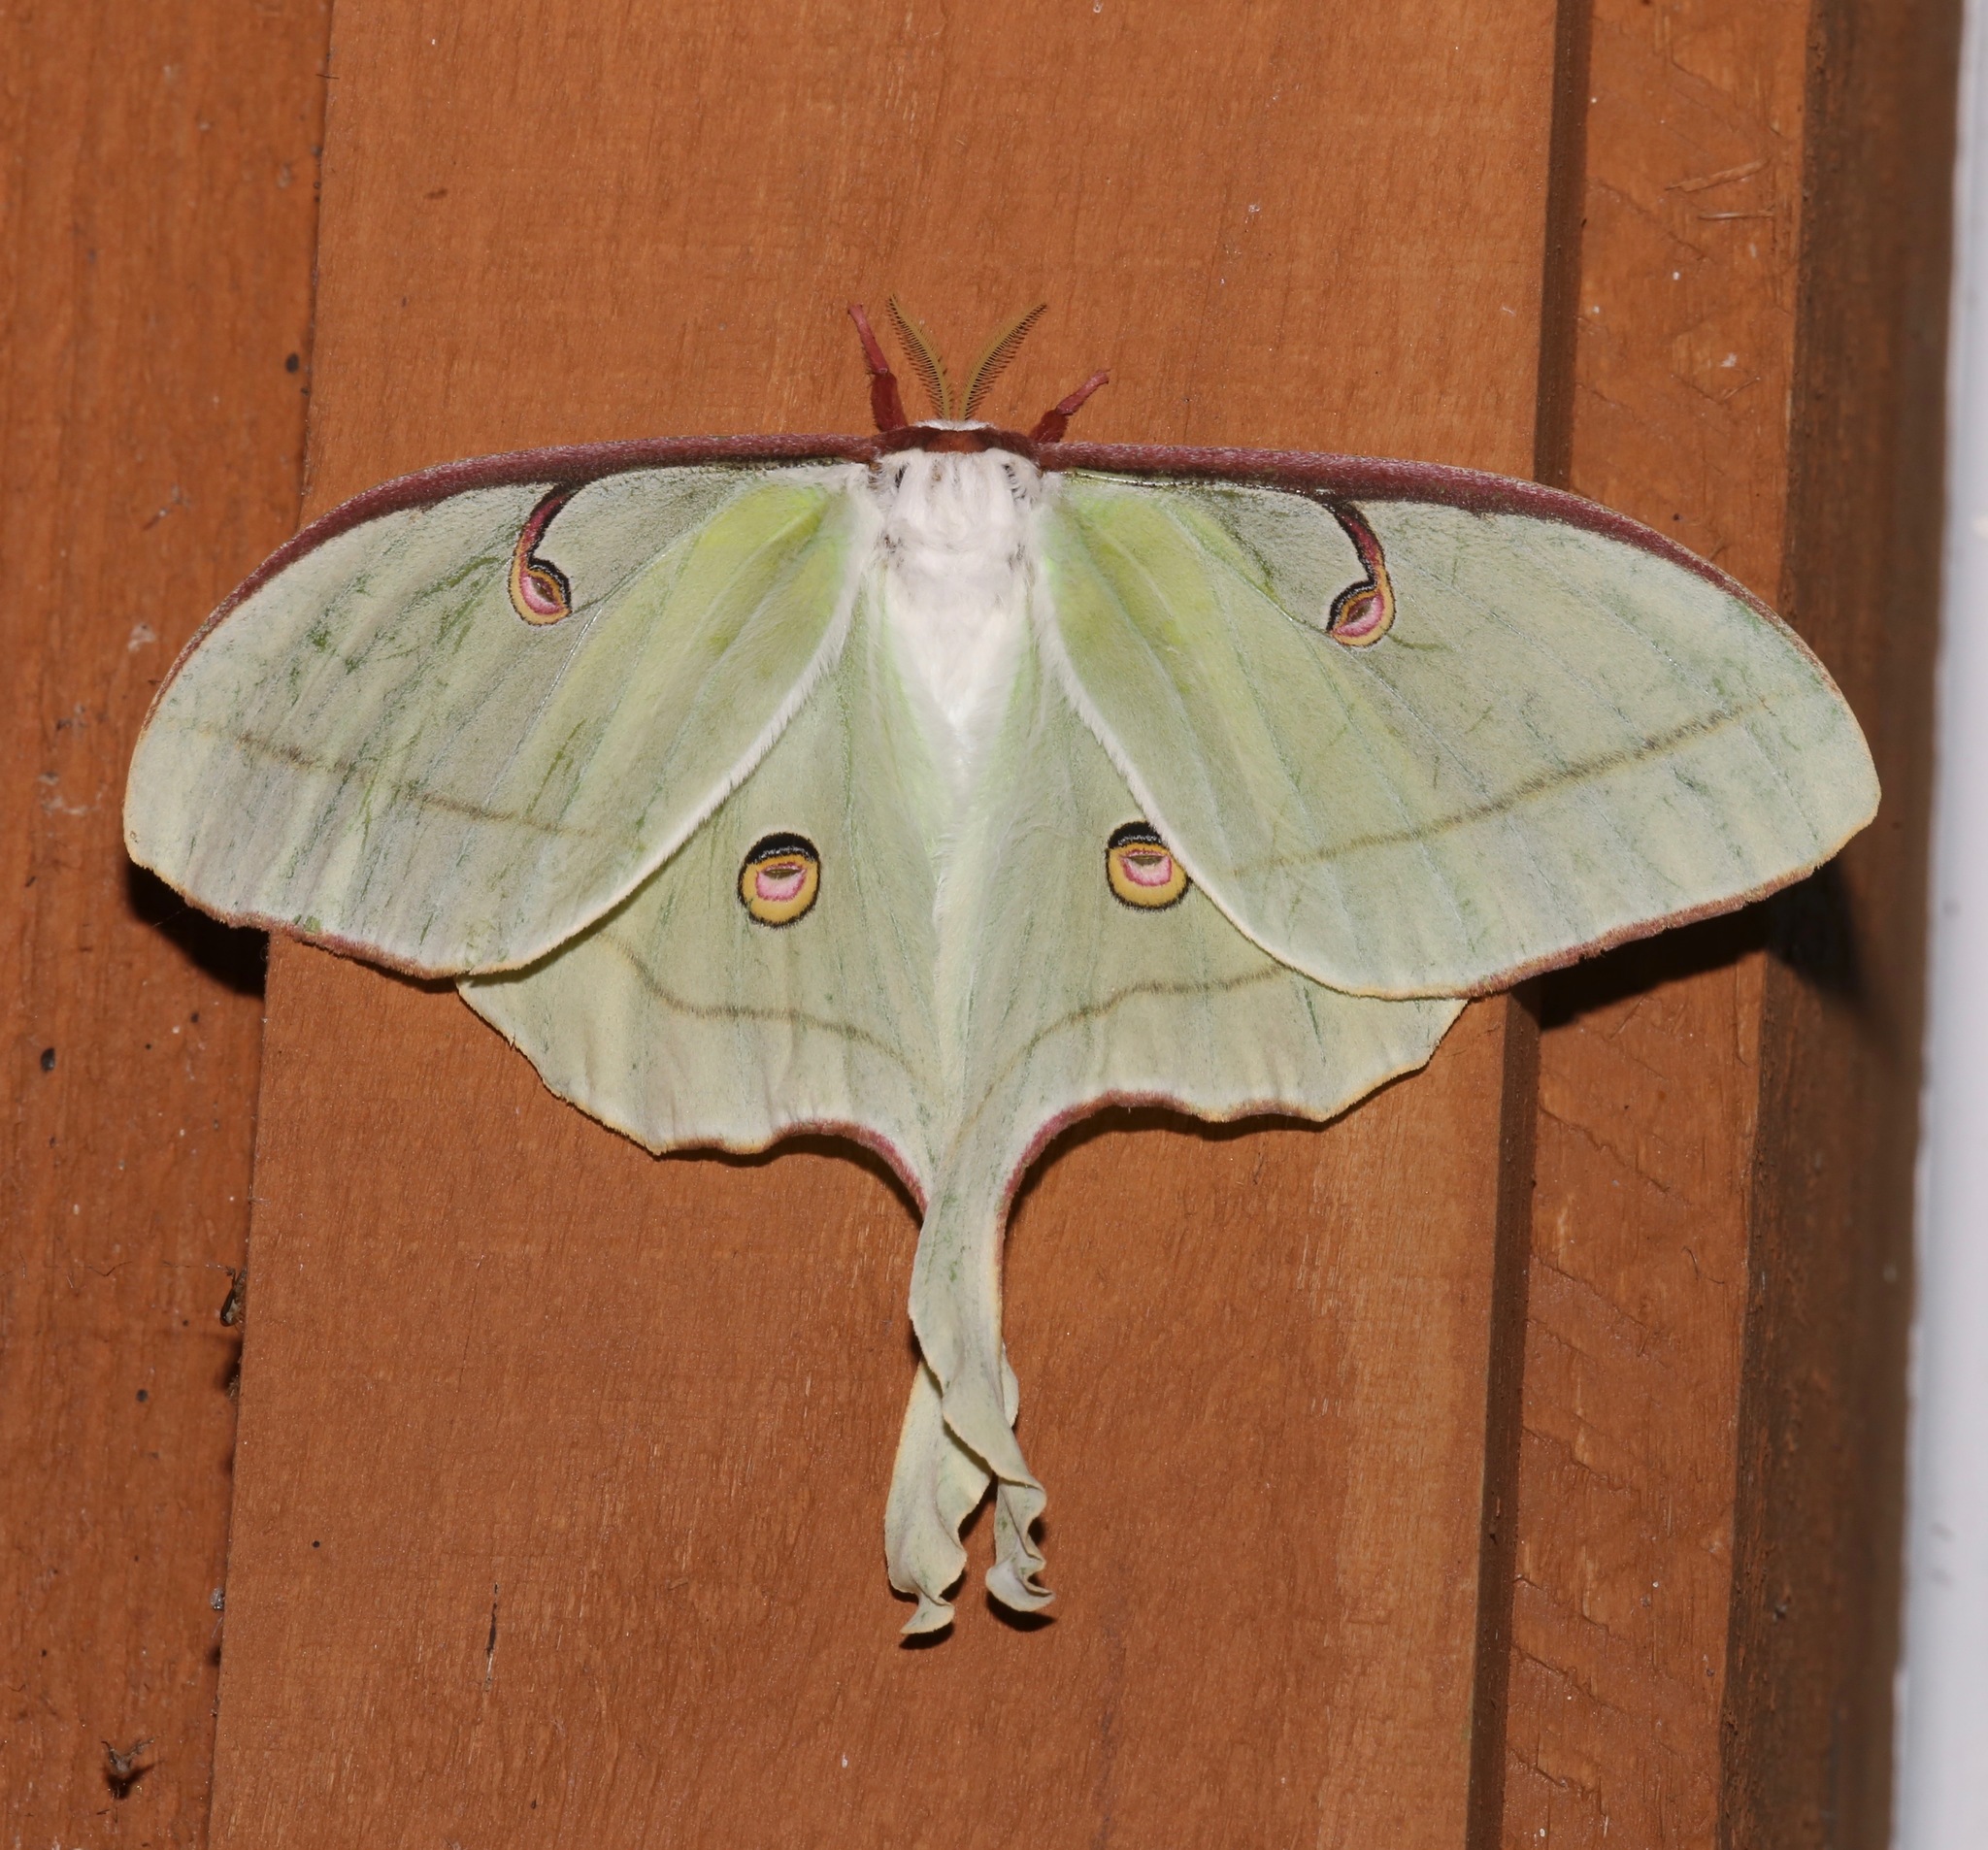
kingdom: Animalia
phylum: Arthropoda
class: Insecta
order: Lepidoptera
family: Saturniidae
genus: Actias
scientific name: Actias luna
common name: Luna moth
